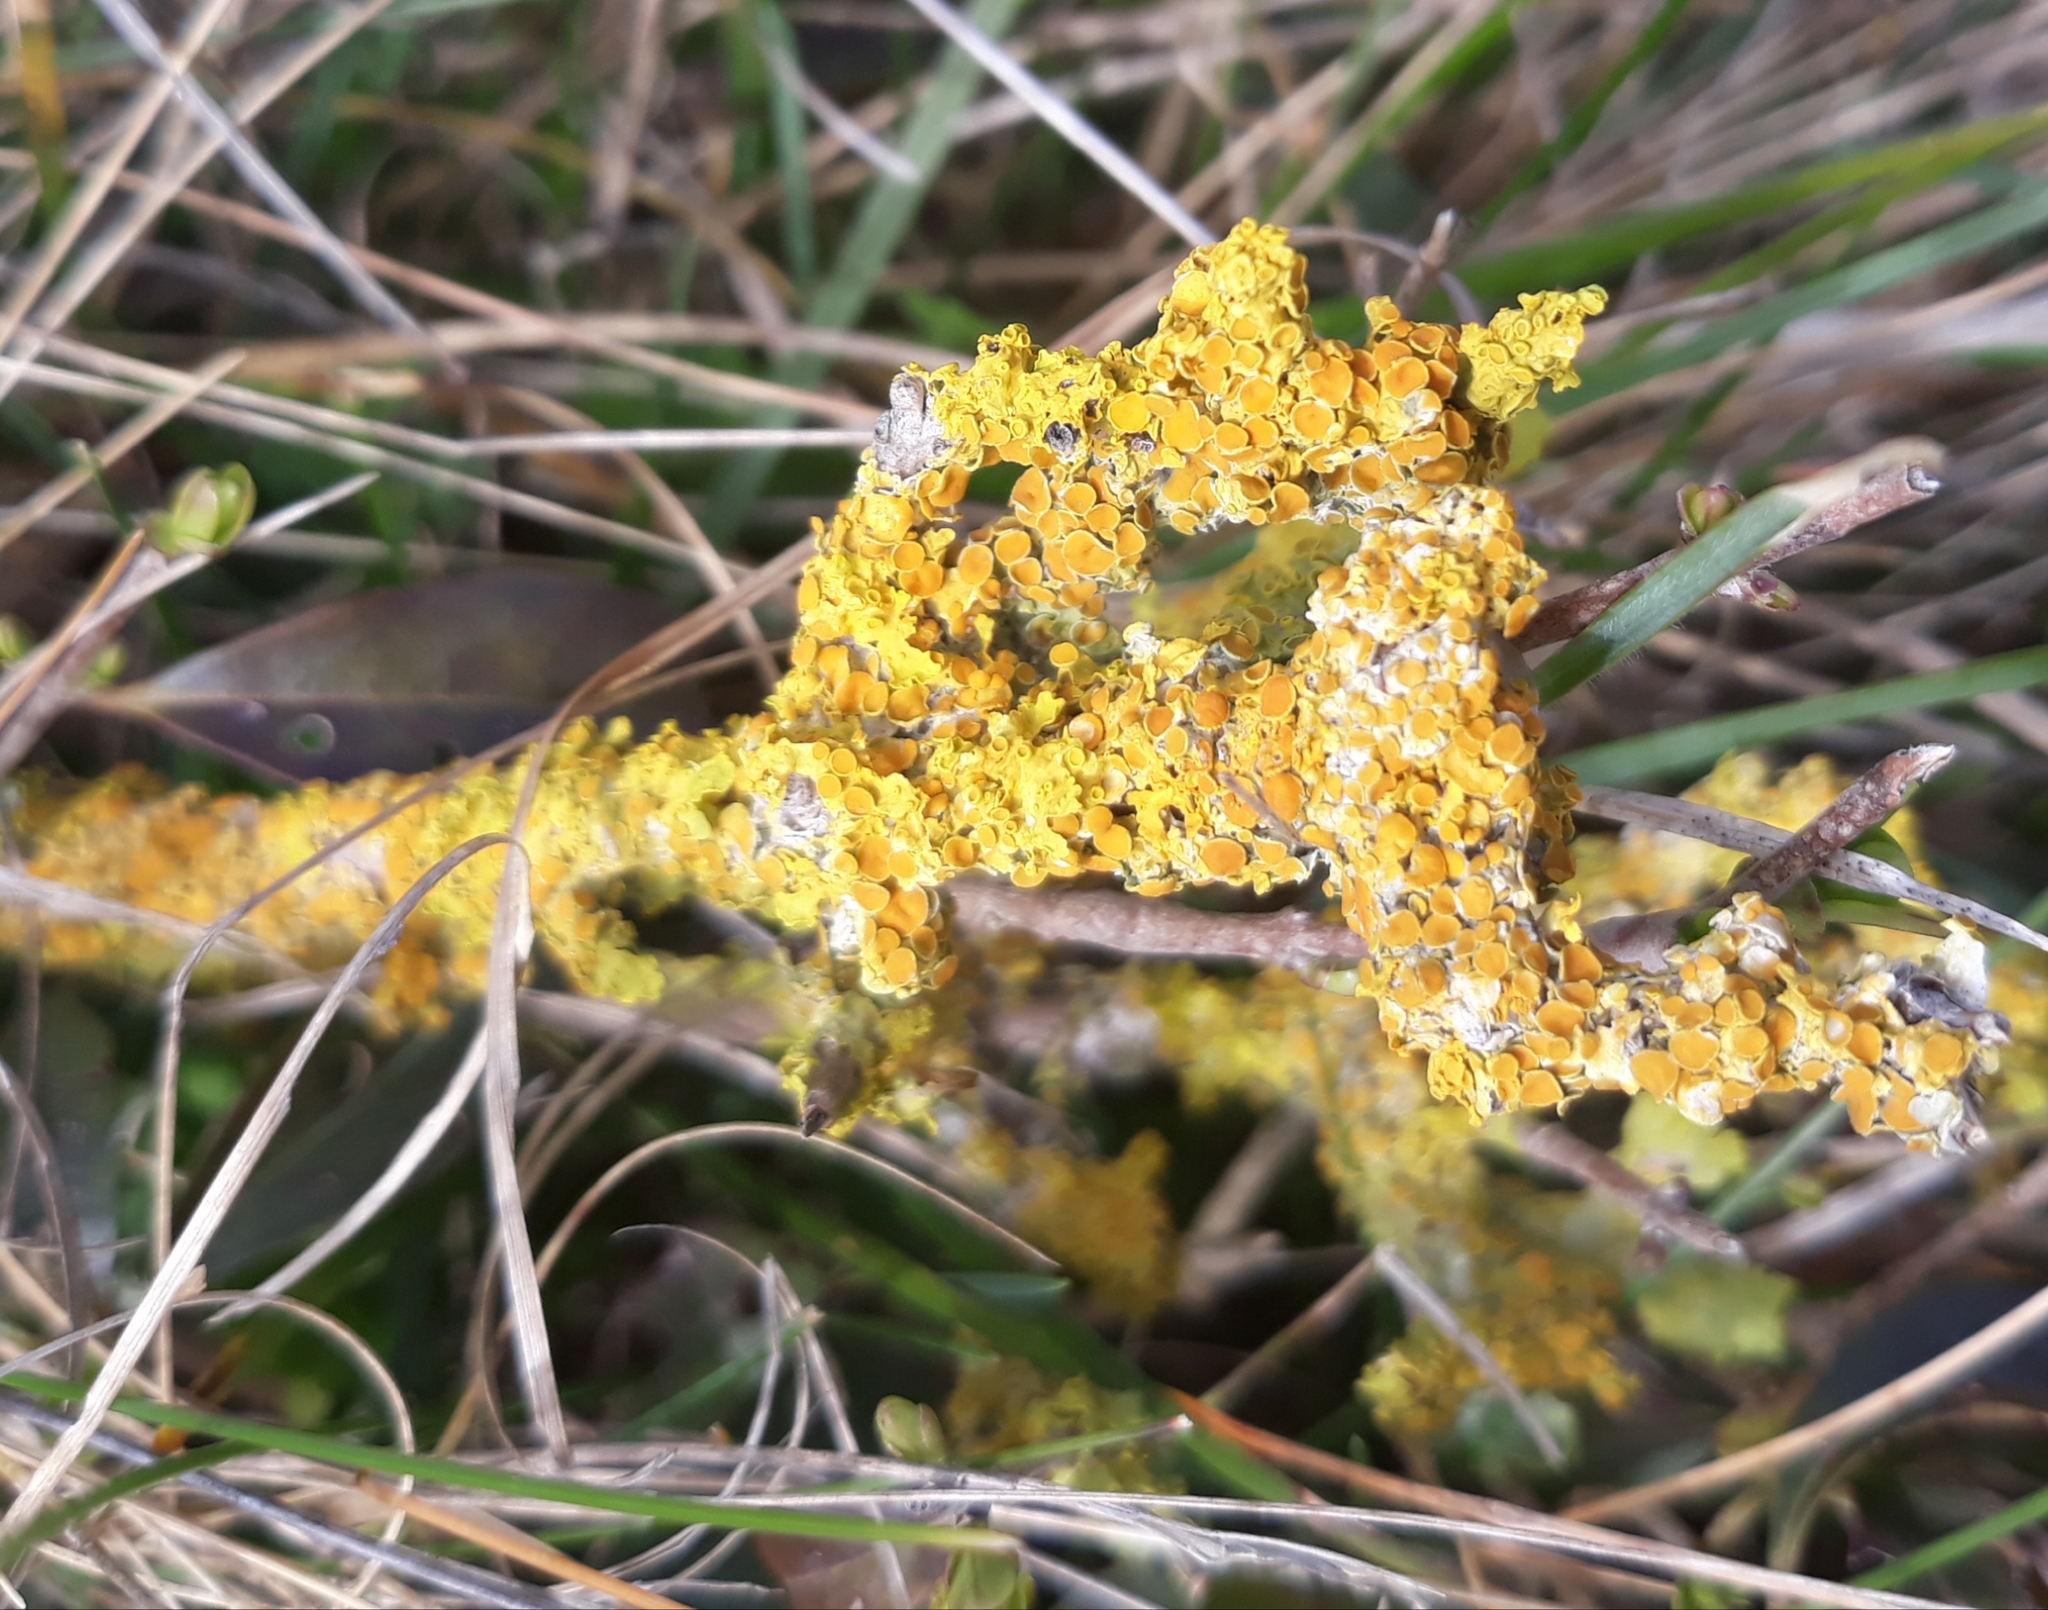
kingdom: Fungi
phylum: Ascomycota
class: Lecanoromycetes
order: Teloschistales
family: Teloschistaceae
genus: Xanthoria
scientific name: Xanthoria parietina
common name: Common orange lichen
